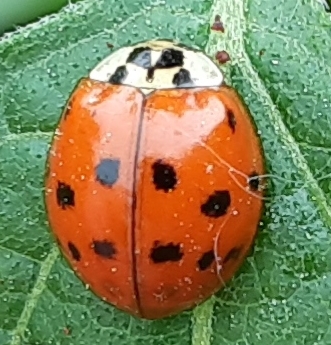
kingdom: Animalia
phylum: Arthropoda
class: Insecta
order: Coleoptera
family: Coccinellidae
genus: Harmonia
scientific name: Harmonia axyridis
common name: Harlequin ladybird
